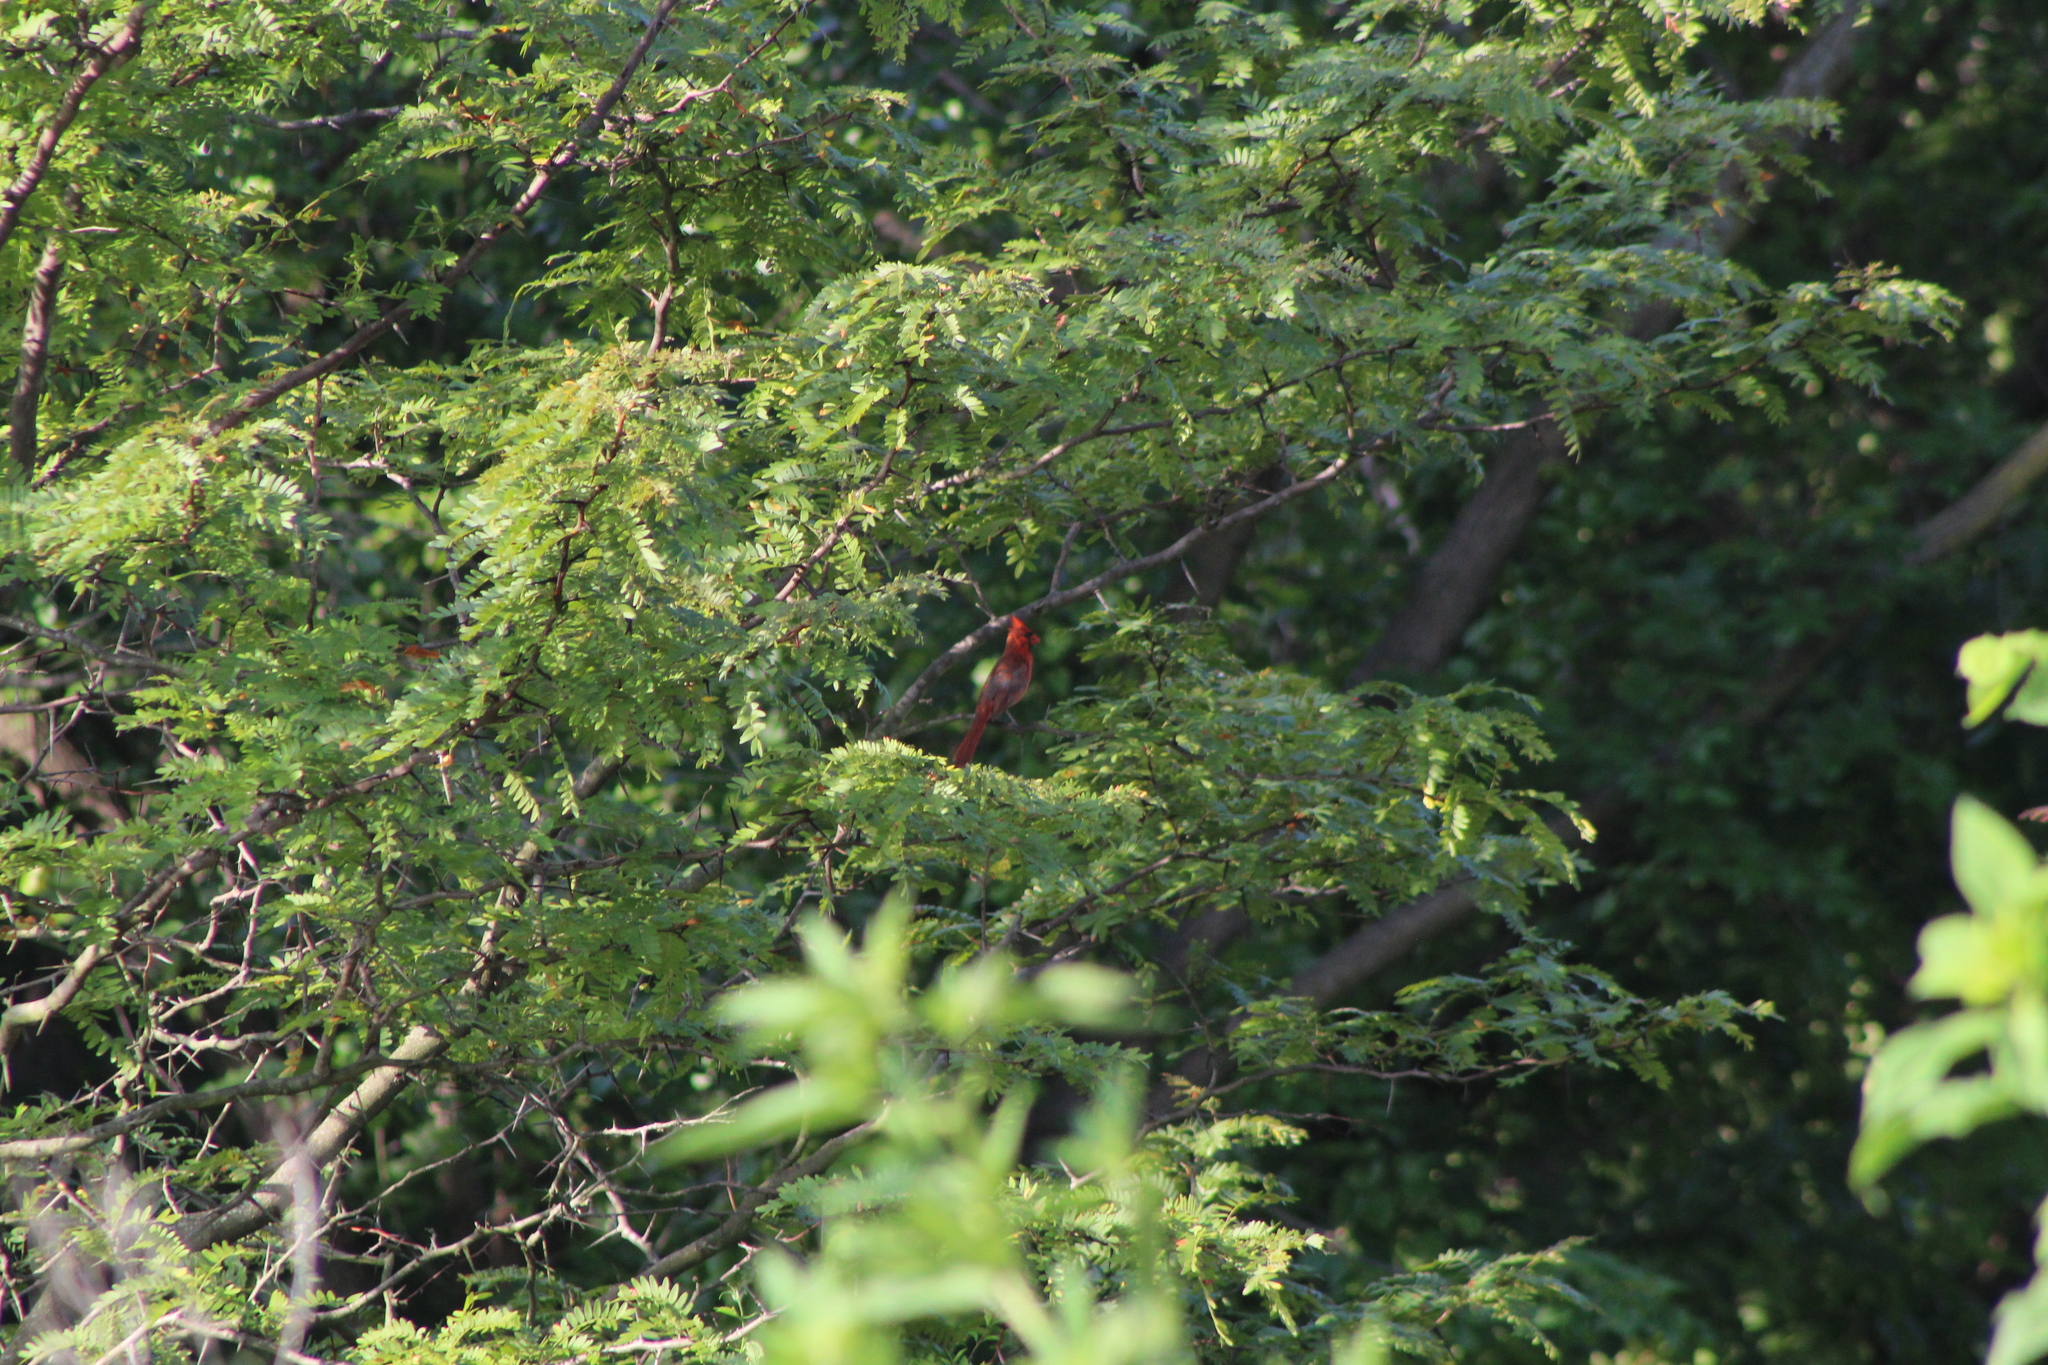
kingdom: Animalia
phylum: Chordata
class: Aves
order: Passeriformes
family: Cardinalidae
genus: Cardinalis
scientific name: Cardinalis cardinalis
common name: Northern cardinal
